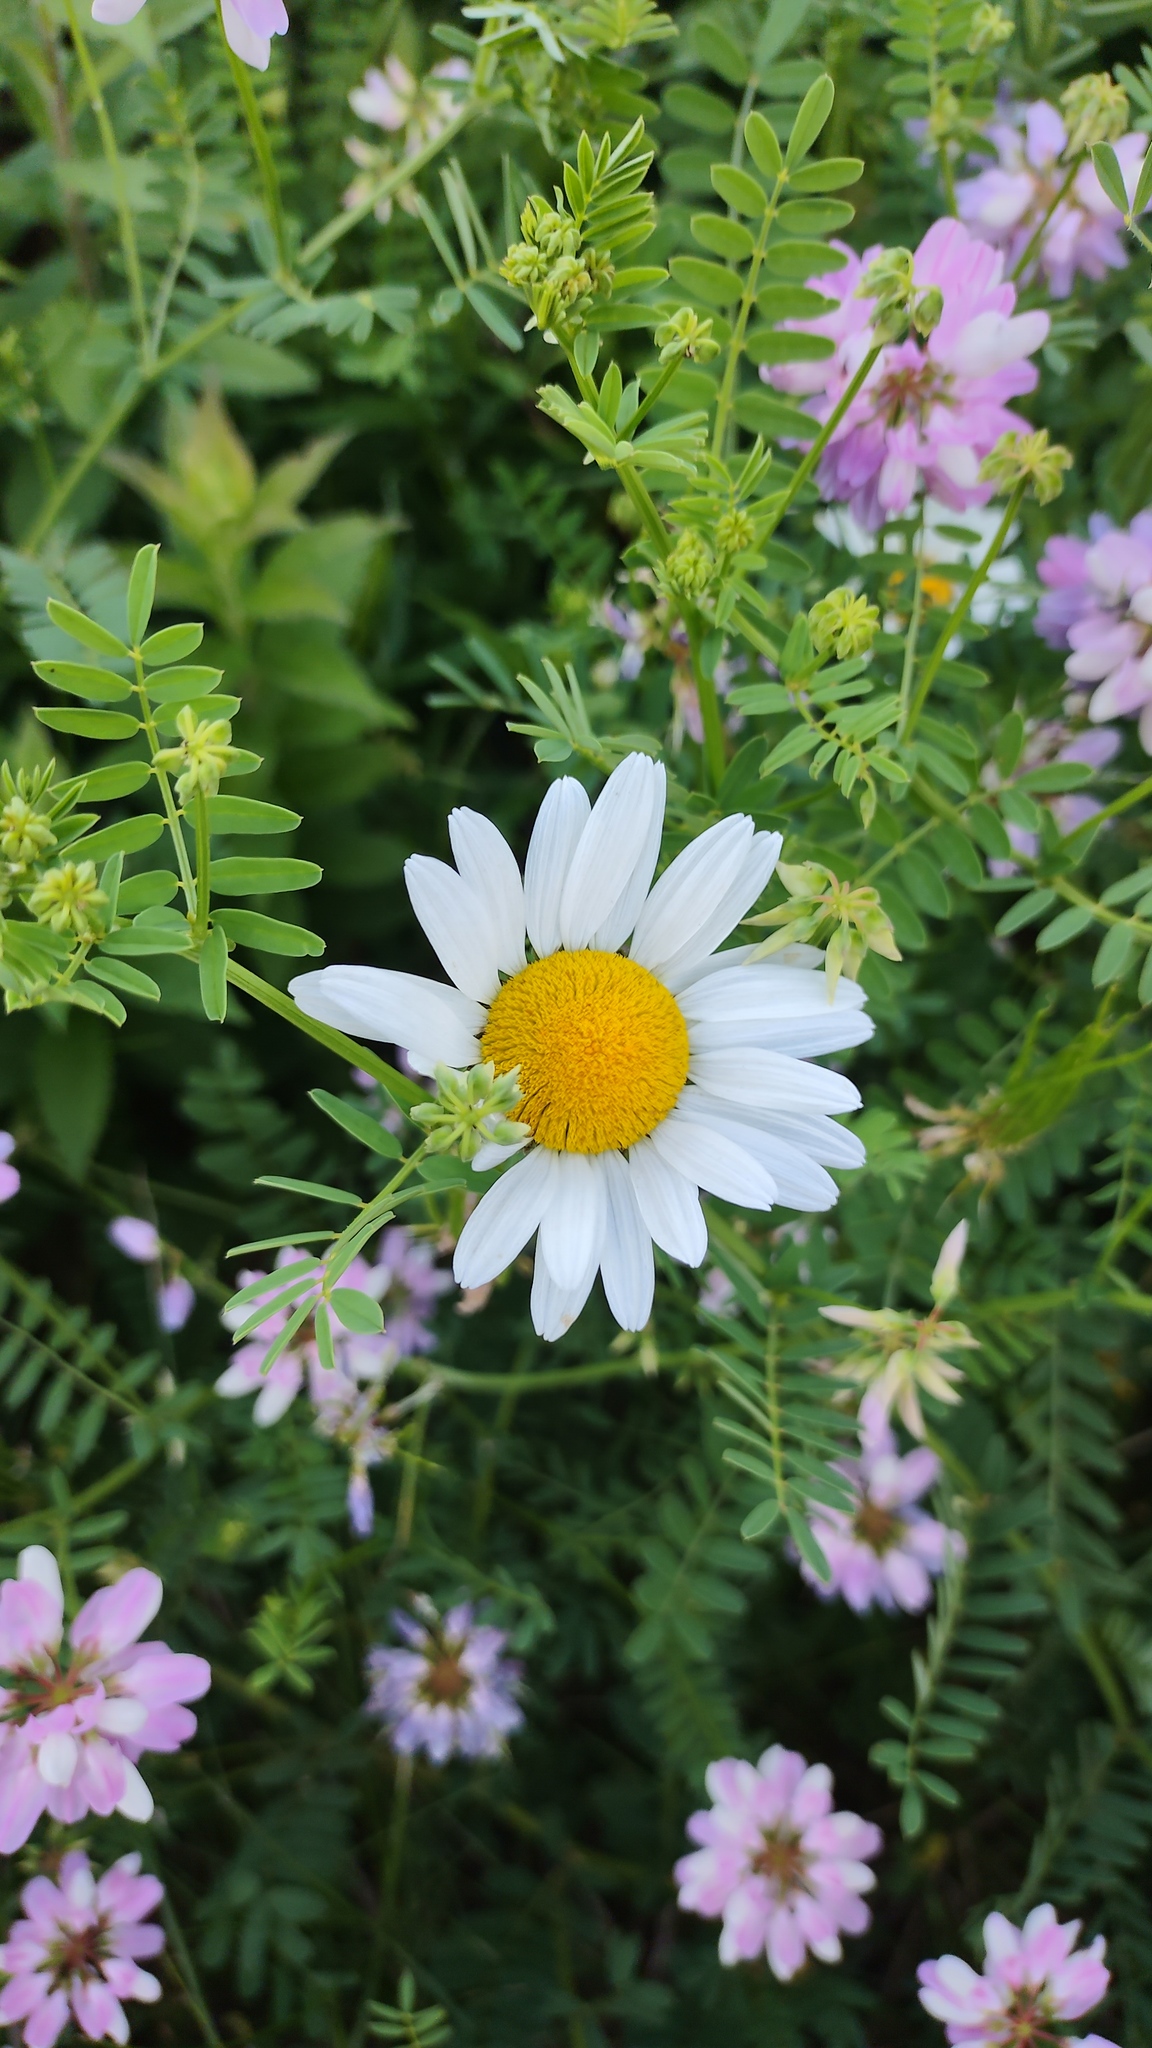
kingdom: Plantae
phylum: Tracheophyta
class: Magnoliopsida
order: Asterales
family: Asteraceae
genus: Leucanthemum
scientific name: Leucanthemum vulgare
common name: Oxeye daisy
